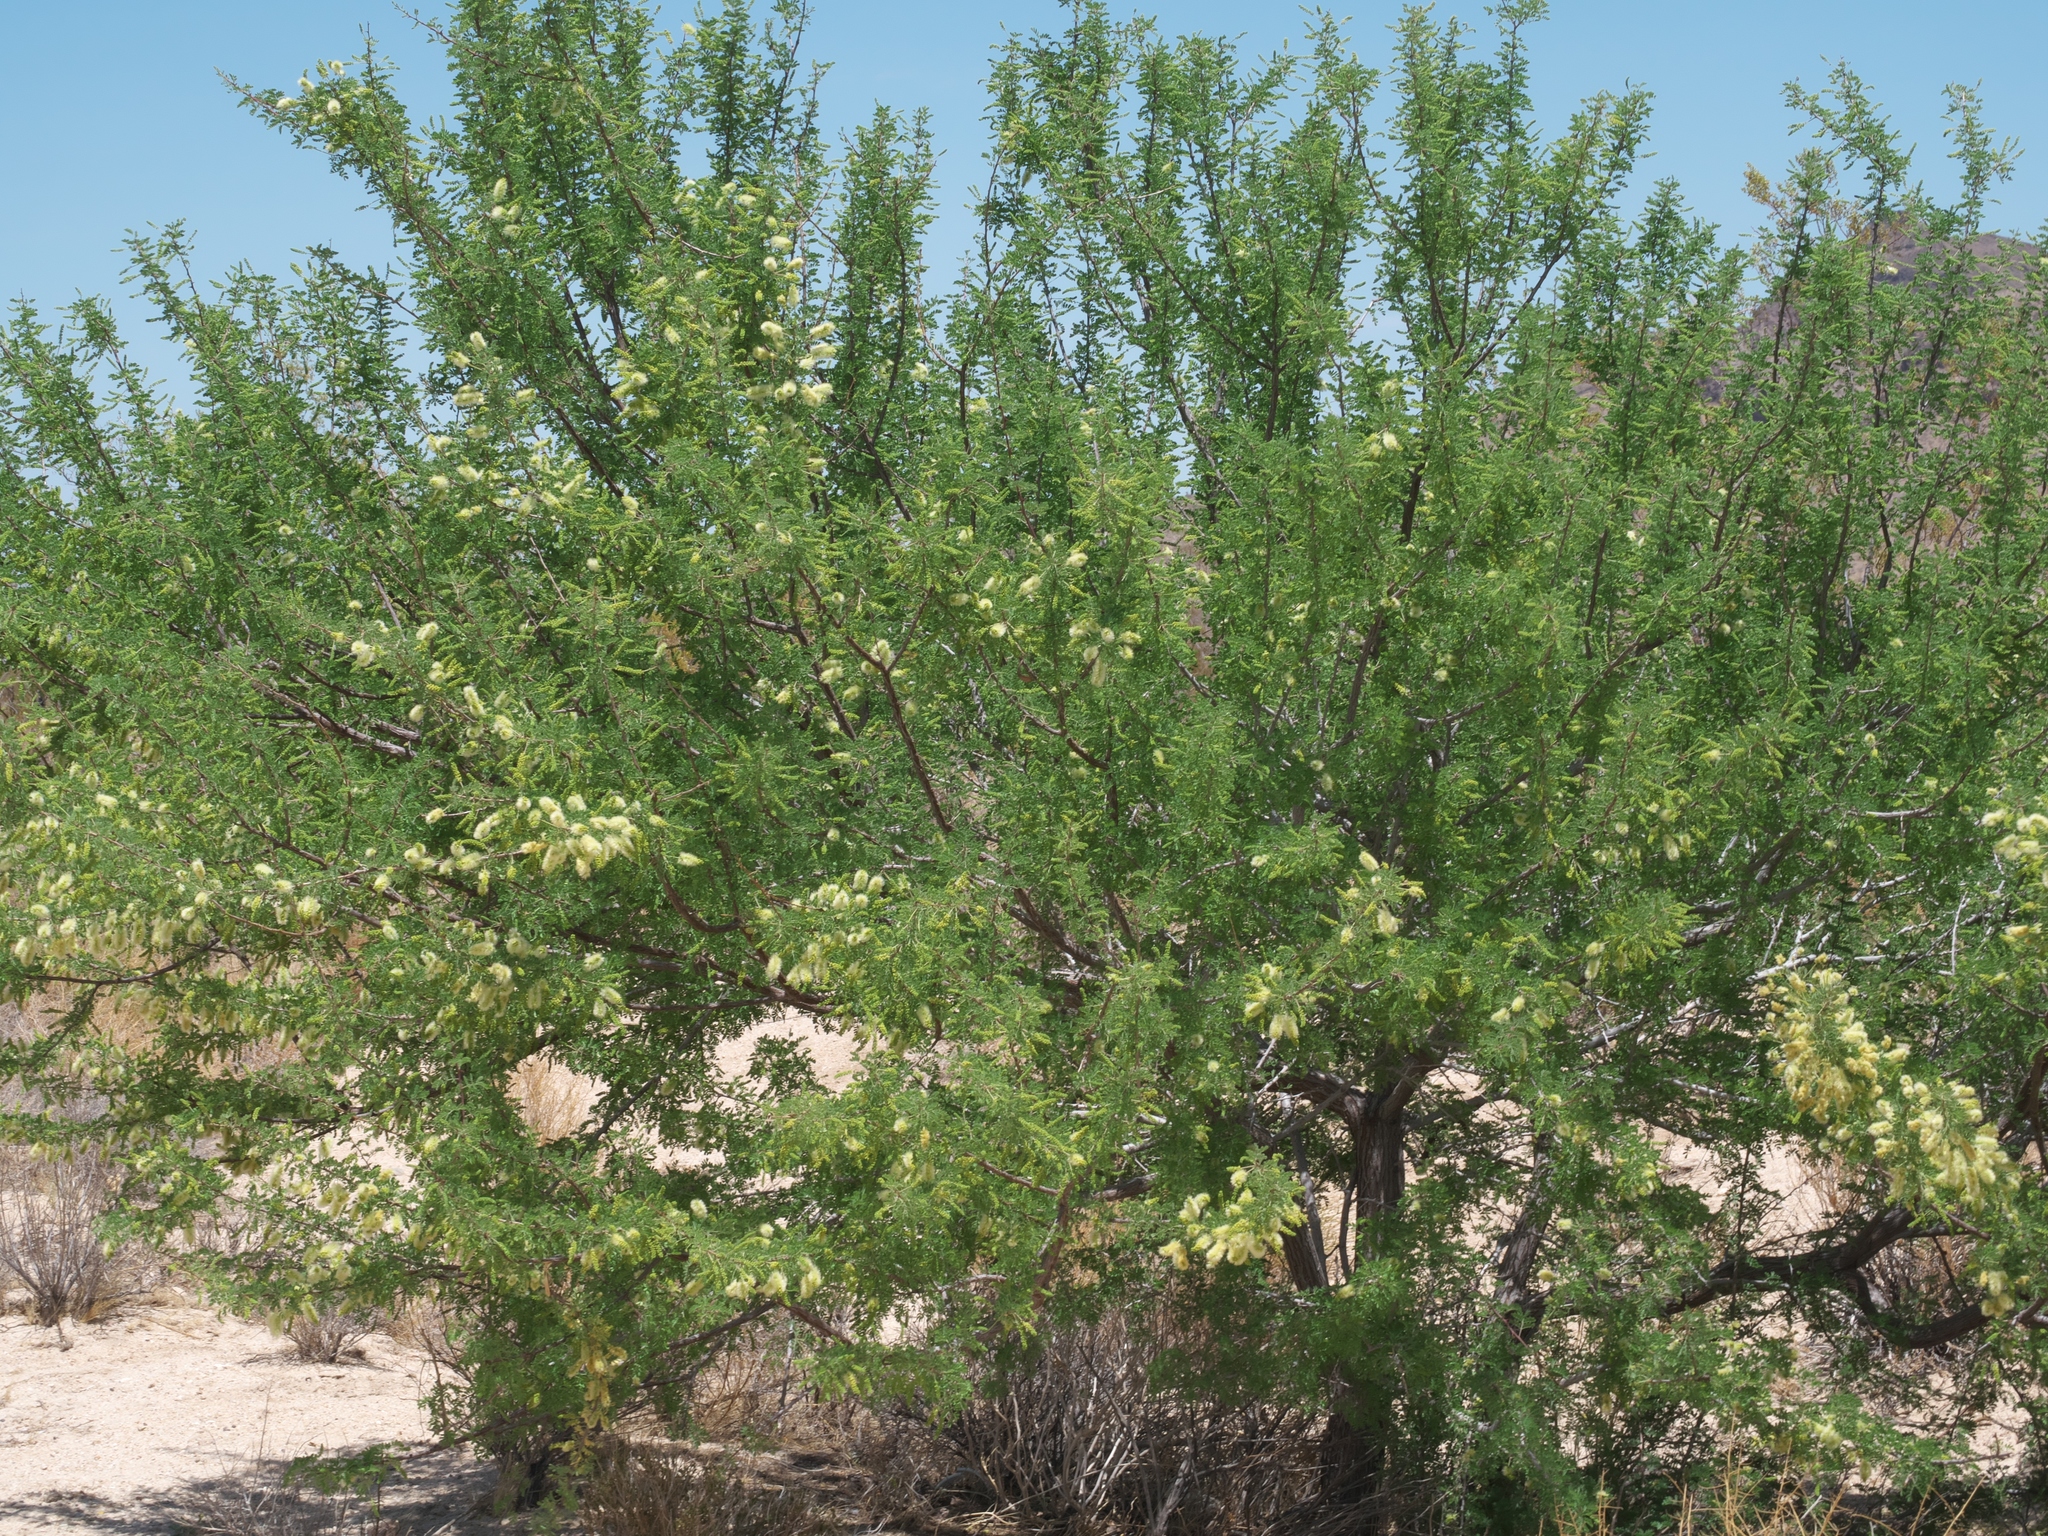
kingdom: Plantae
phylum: Tracheophyta
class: Magnoliopsida
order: Fabales
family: Fabaceae
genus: Senegalia
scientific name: Senegalia greggii
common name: Texas-mimosa
